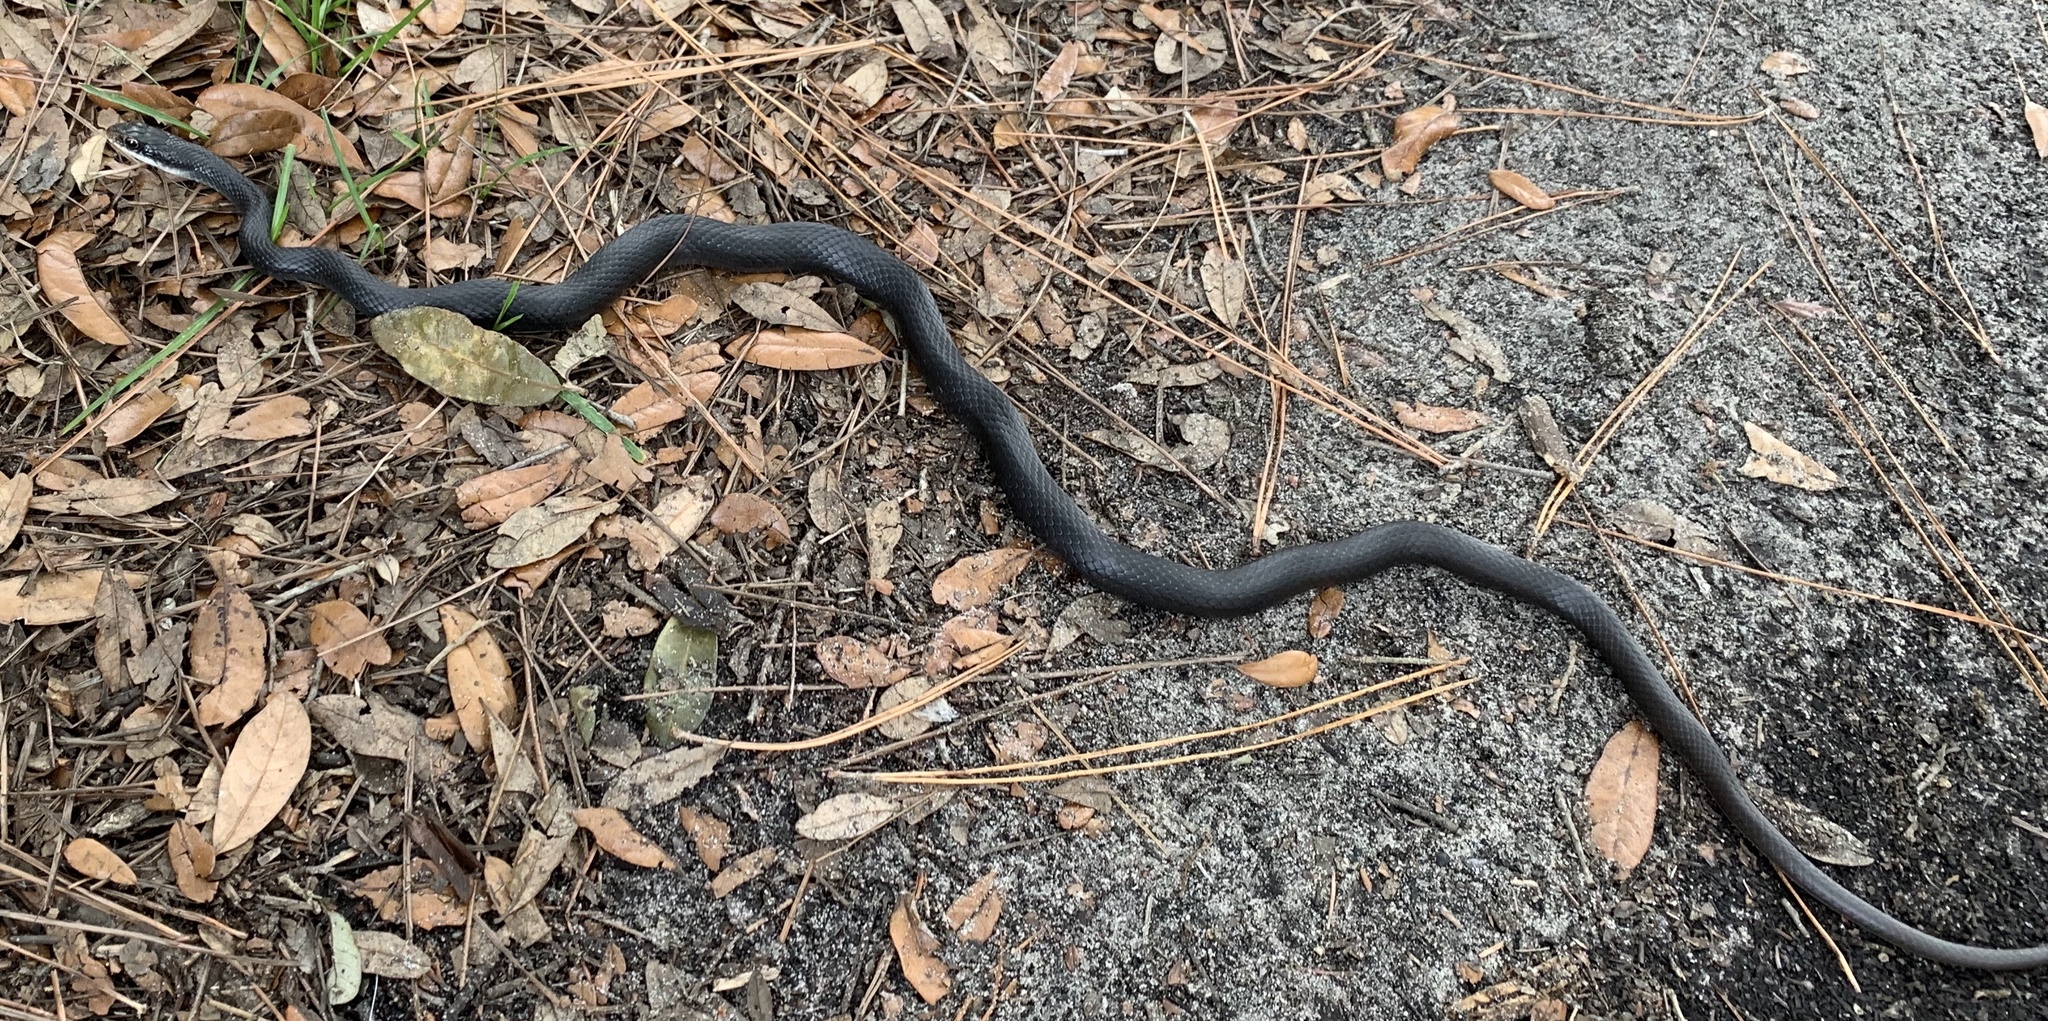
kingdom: Animalia
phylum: Chordata
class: Squamata
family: Colubridae
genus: Coluber
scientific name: Coluber constrictor
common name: Eastern racer
